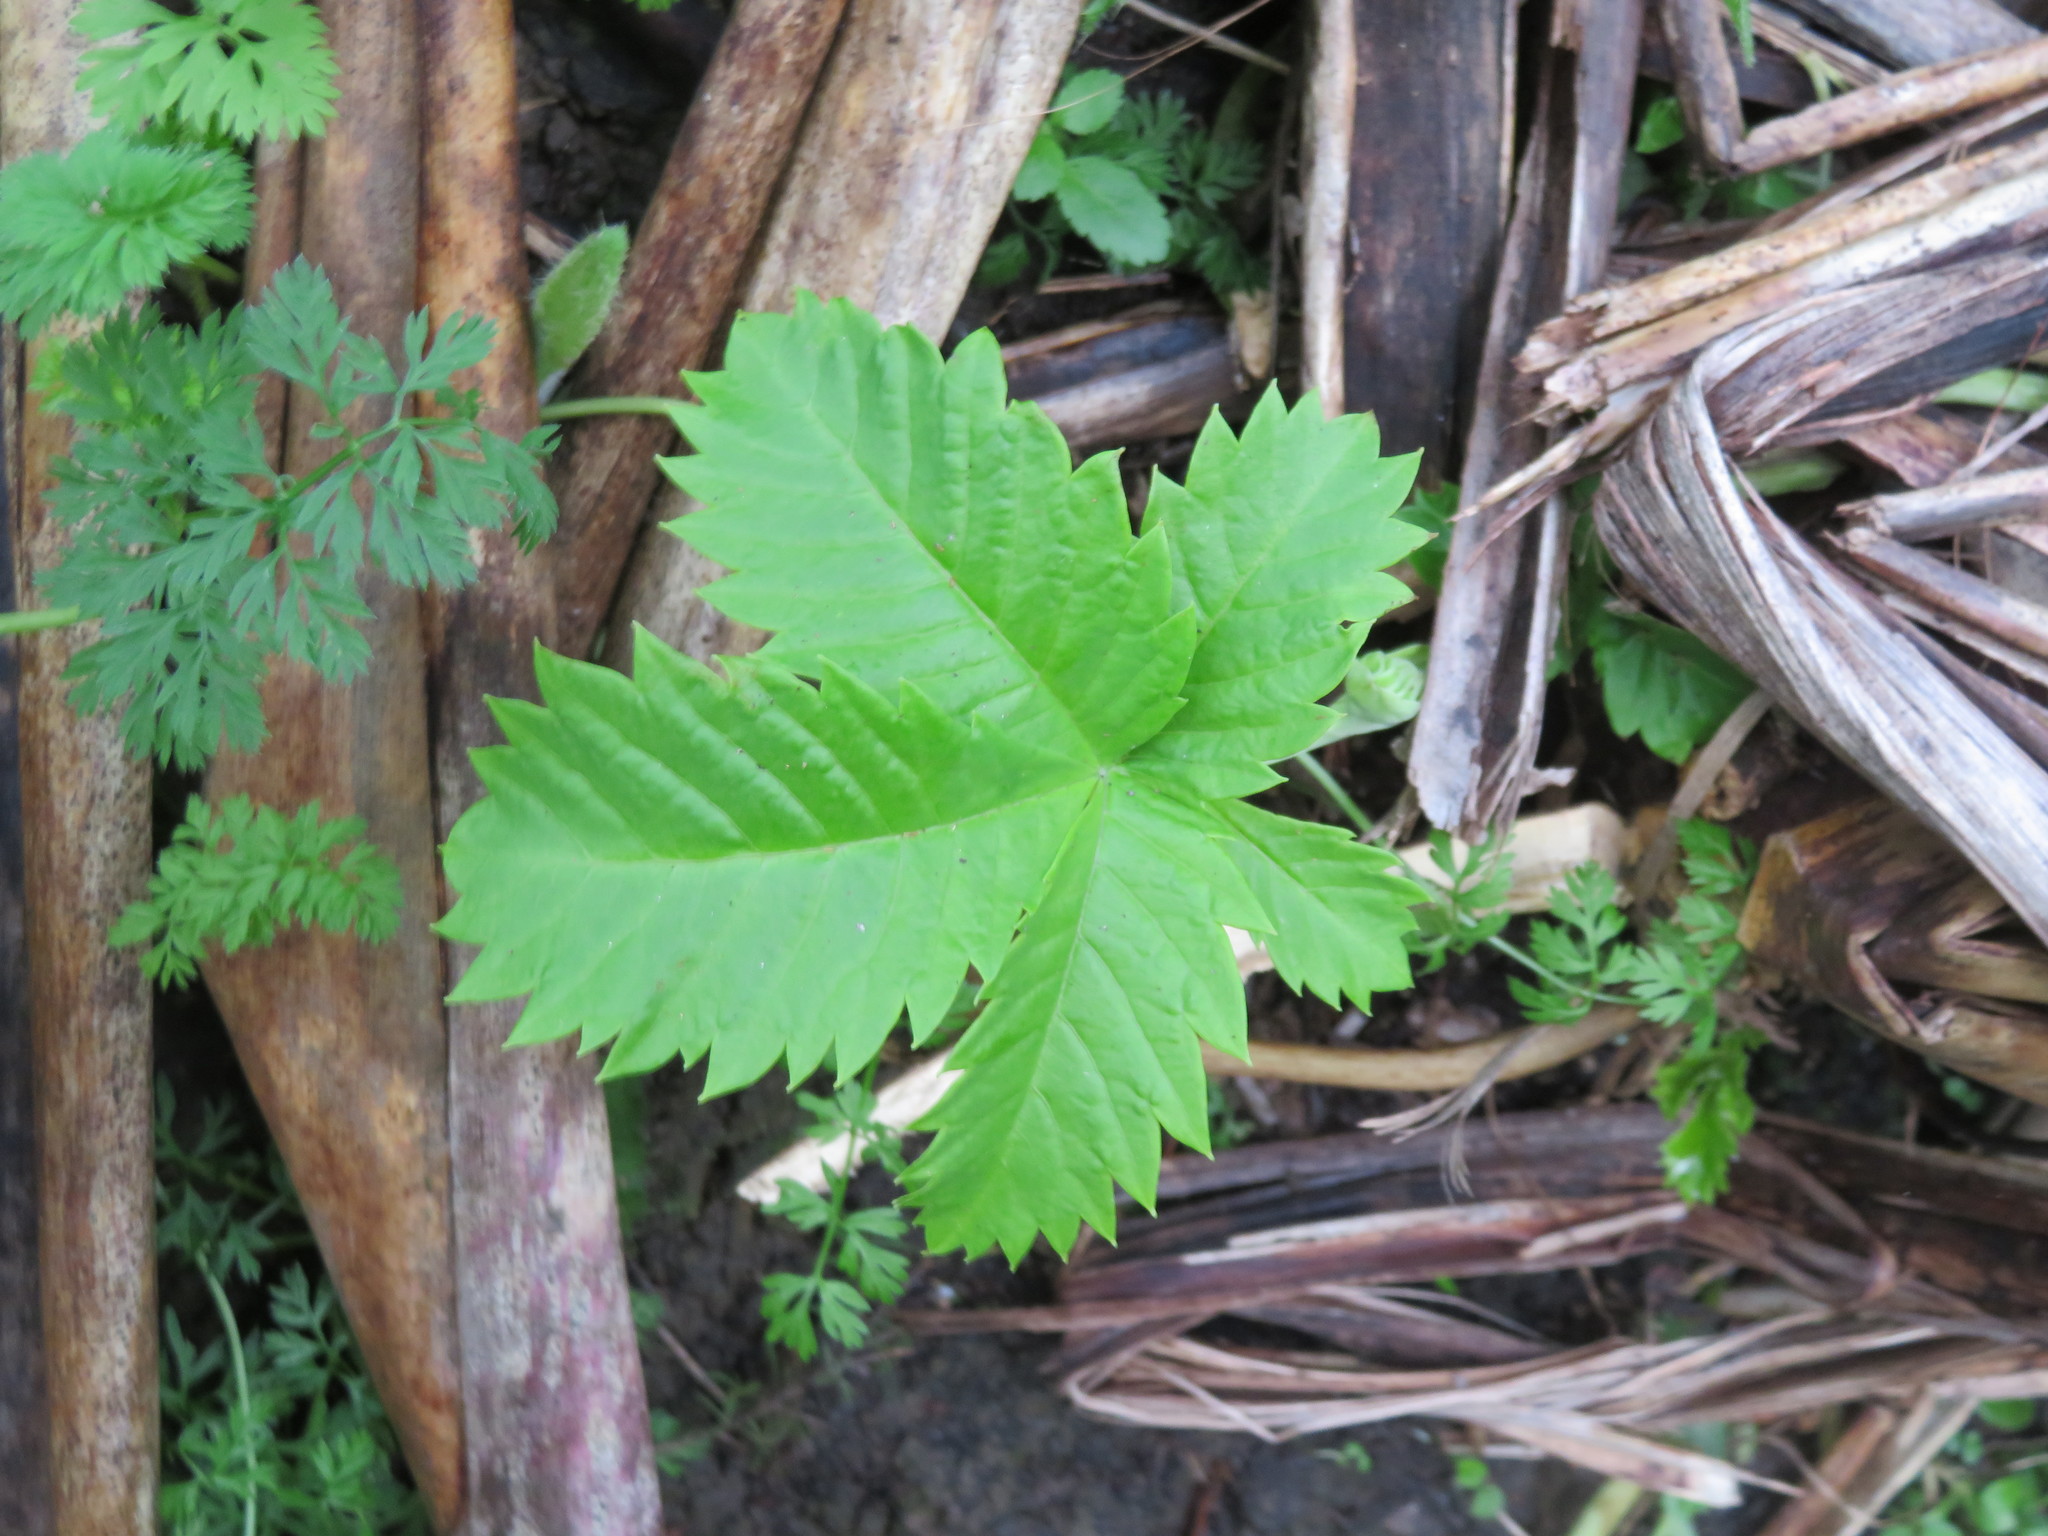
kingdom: Plantae
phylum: Tracheophyta
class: Magnoliopsida
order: Geraniales
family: Melianthaceae
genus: Melianthus
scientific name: Melianthus major
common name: Honey-flower
